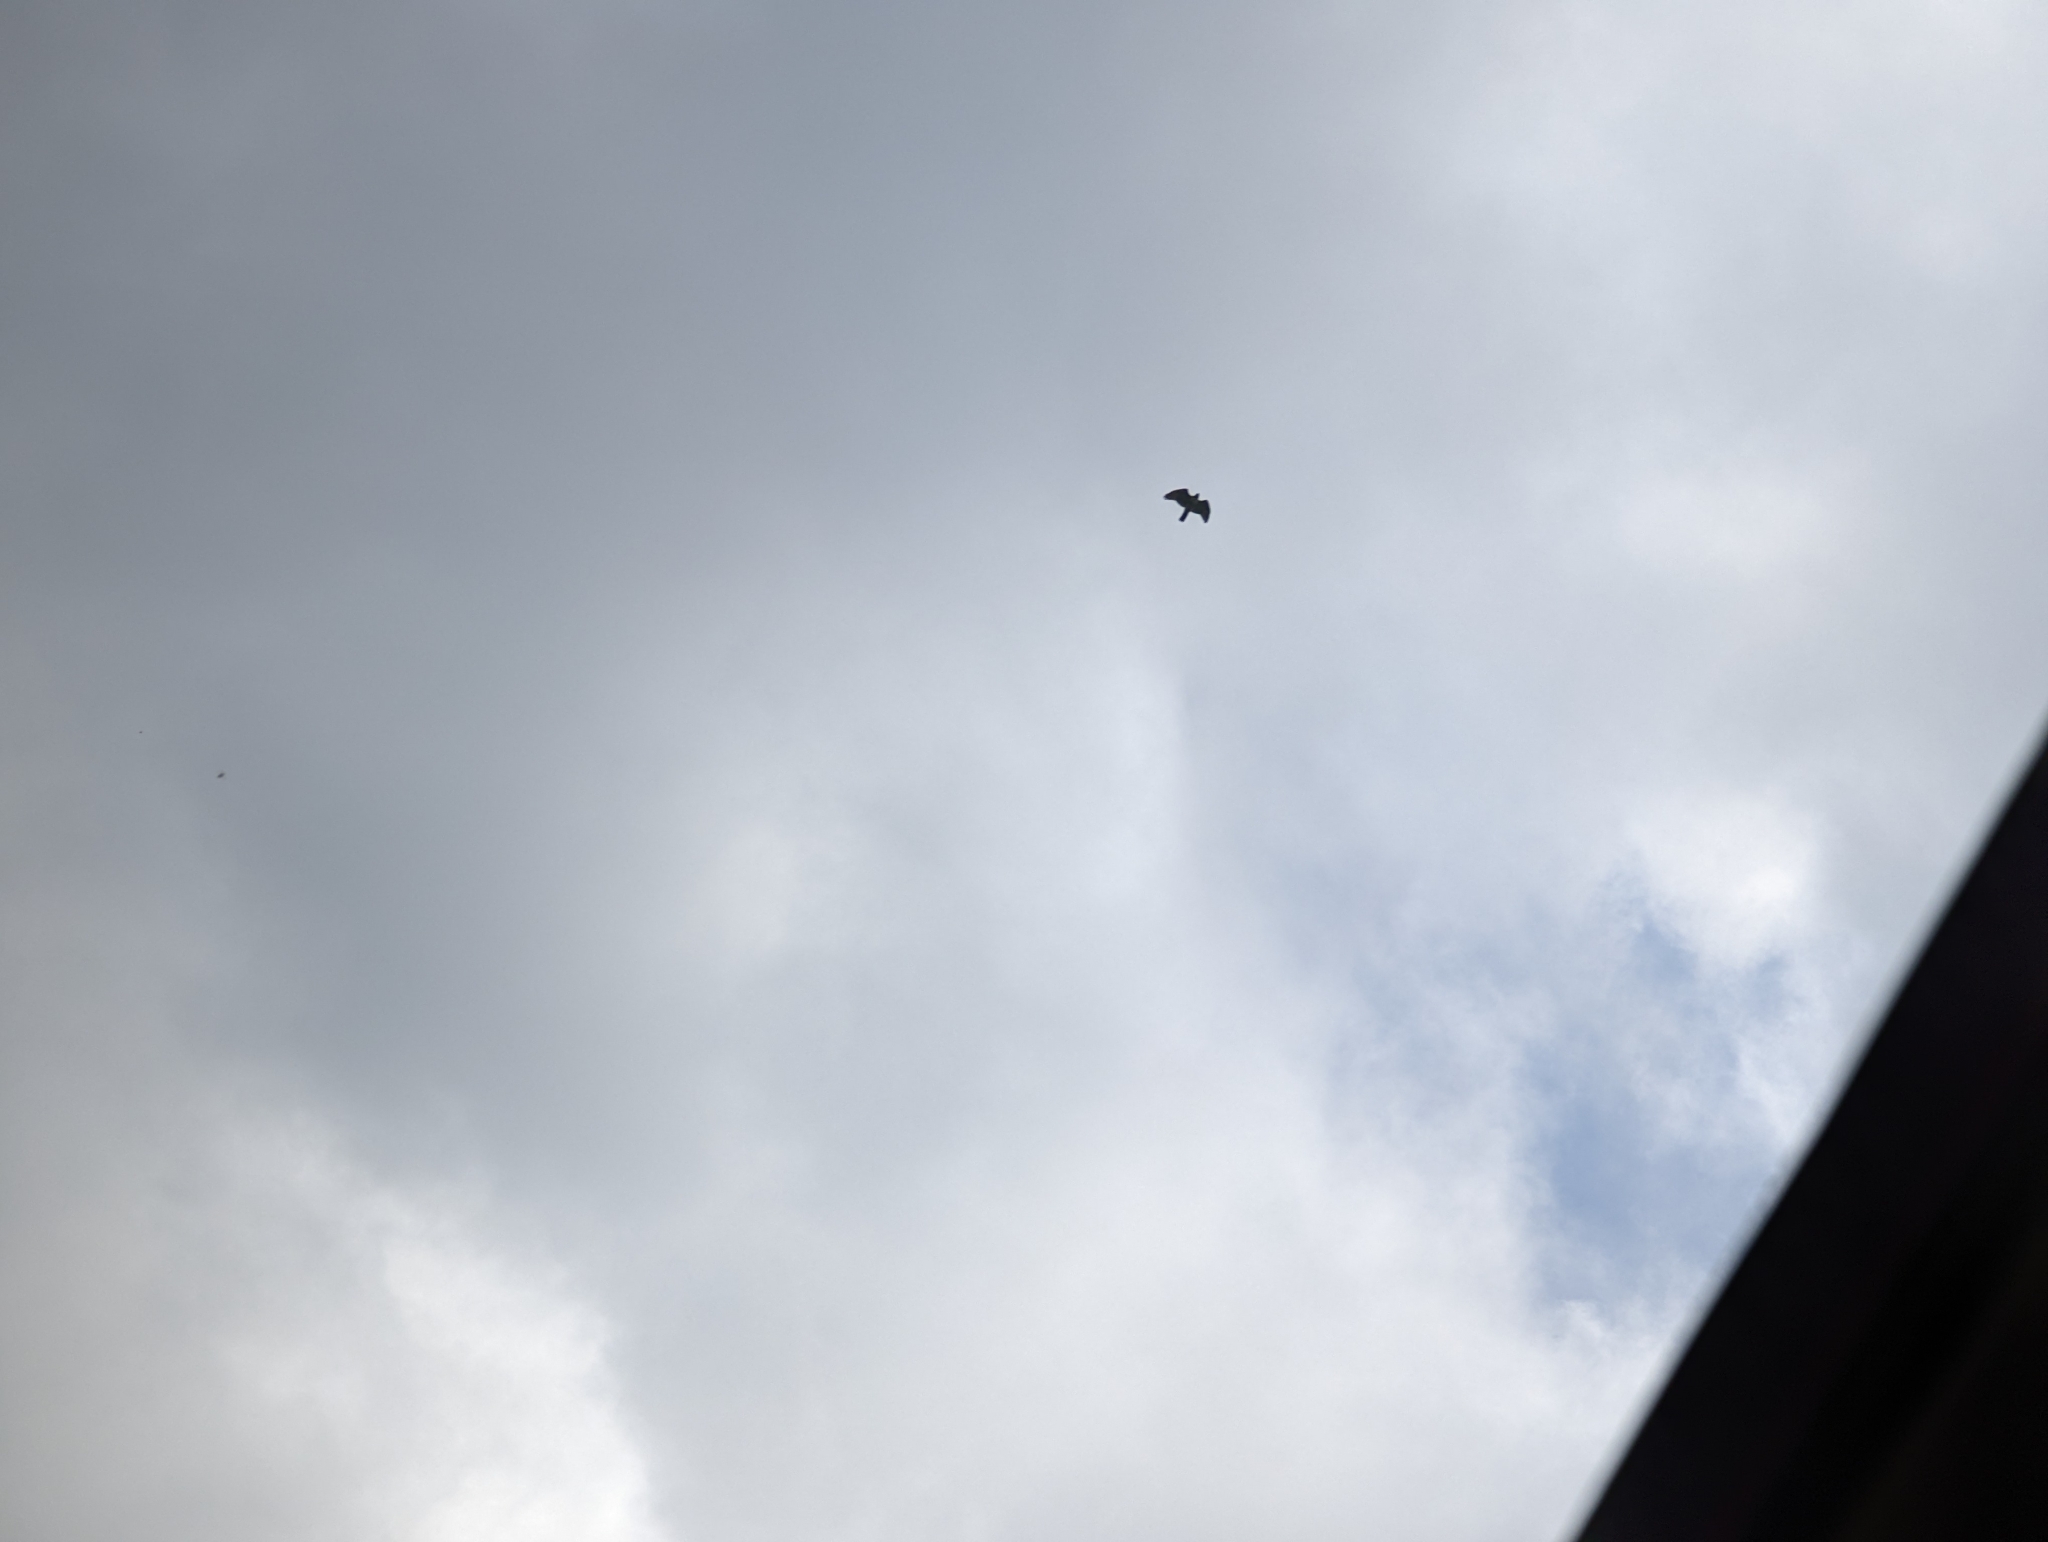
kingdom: Animalia
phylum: Chordata
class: Aves
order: Accipitriformes
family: Accipitridae
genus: Buteo
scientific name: Buteo jamaicensis
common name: Red-tailed hawk
